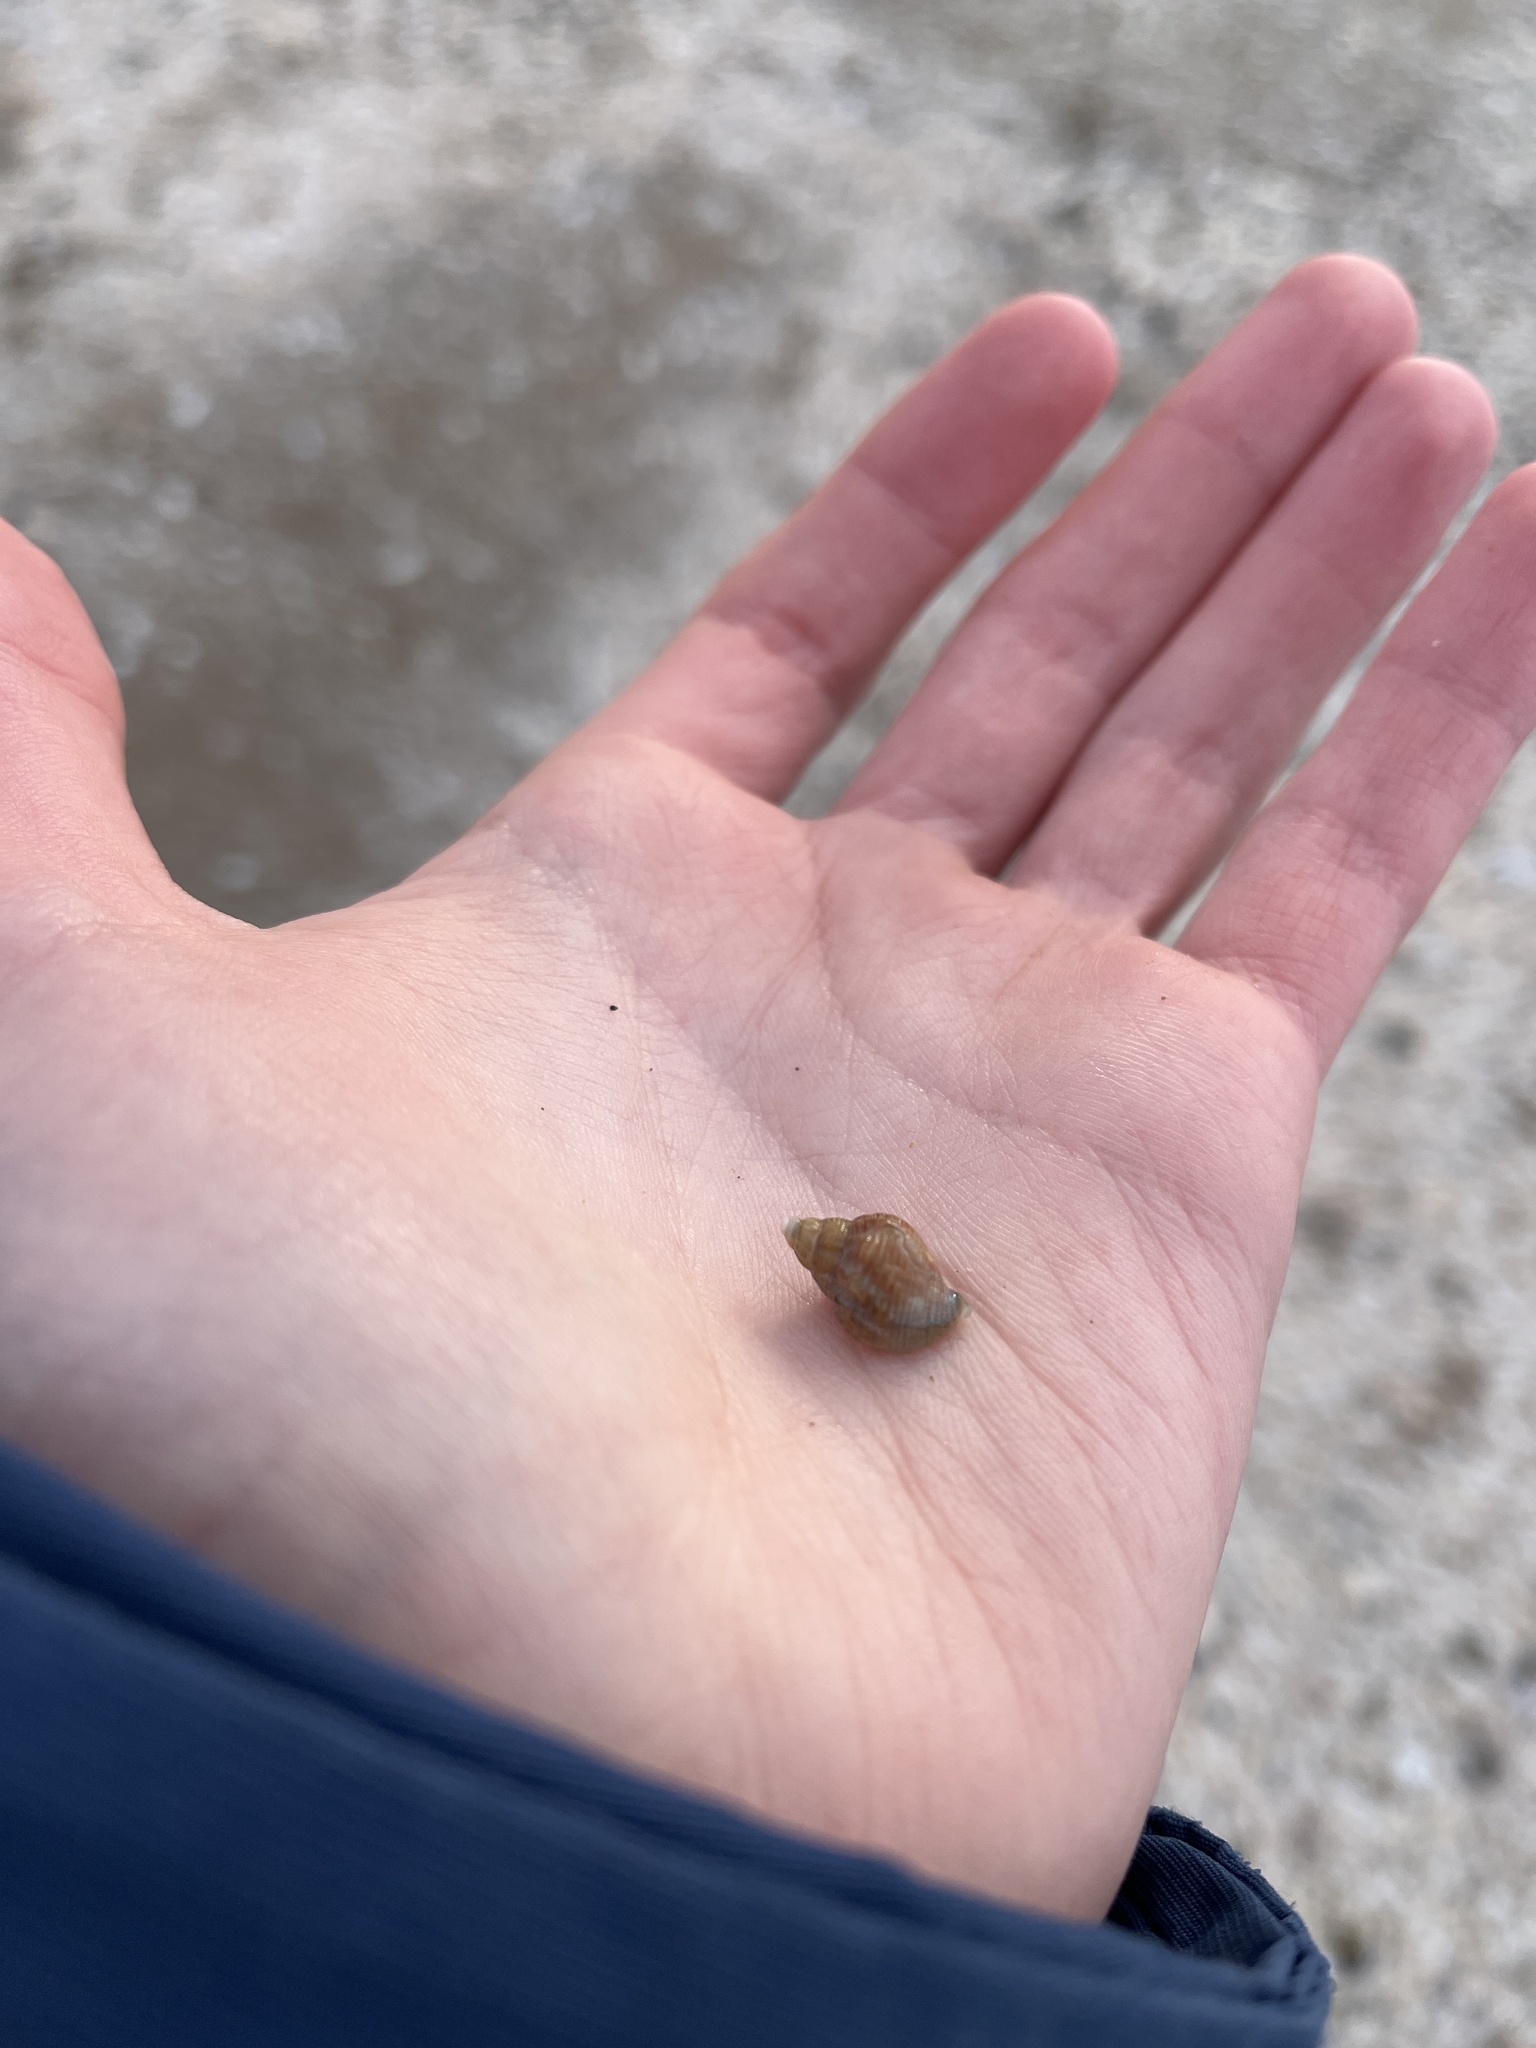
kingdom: Animalia
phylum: Mollusca
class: Gastropoda
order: Neogastropoda
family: Buccinidae
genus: Buccinum
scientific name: Buccinum undatum
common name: Common whelk
